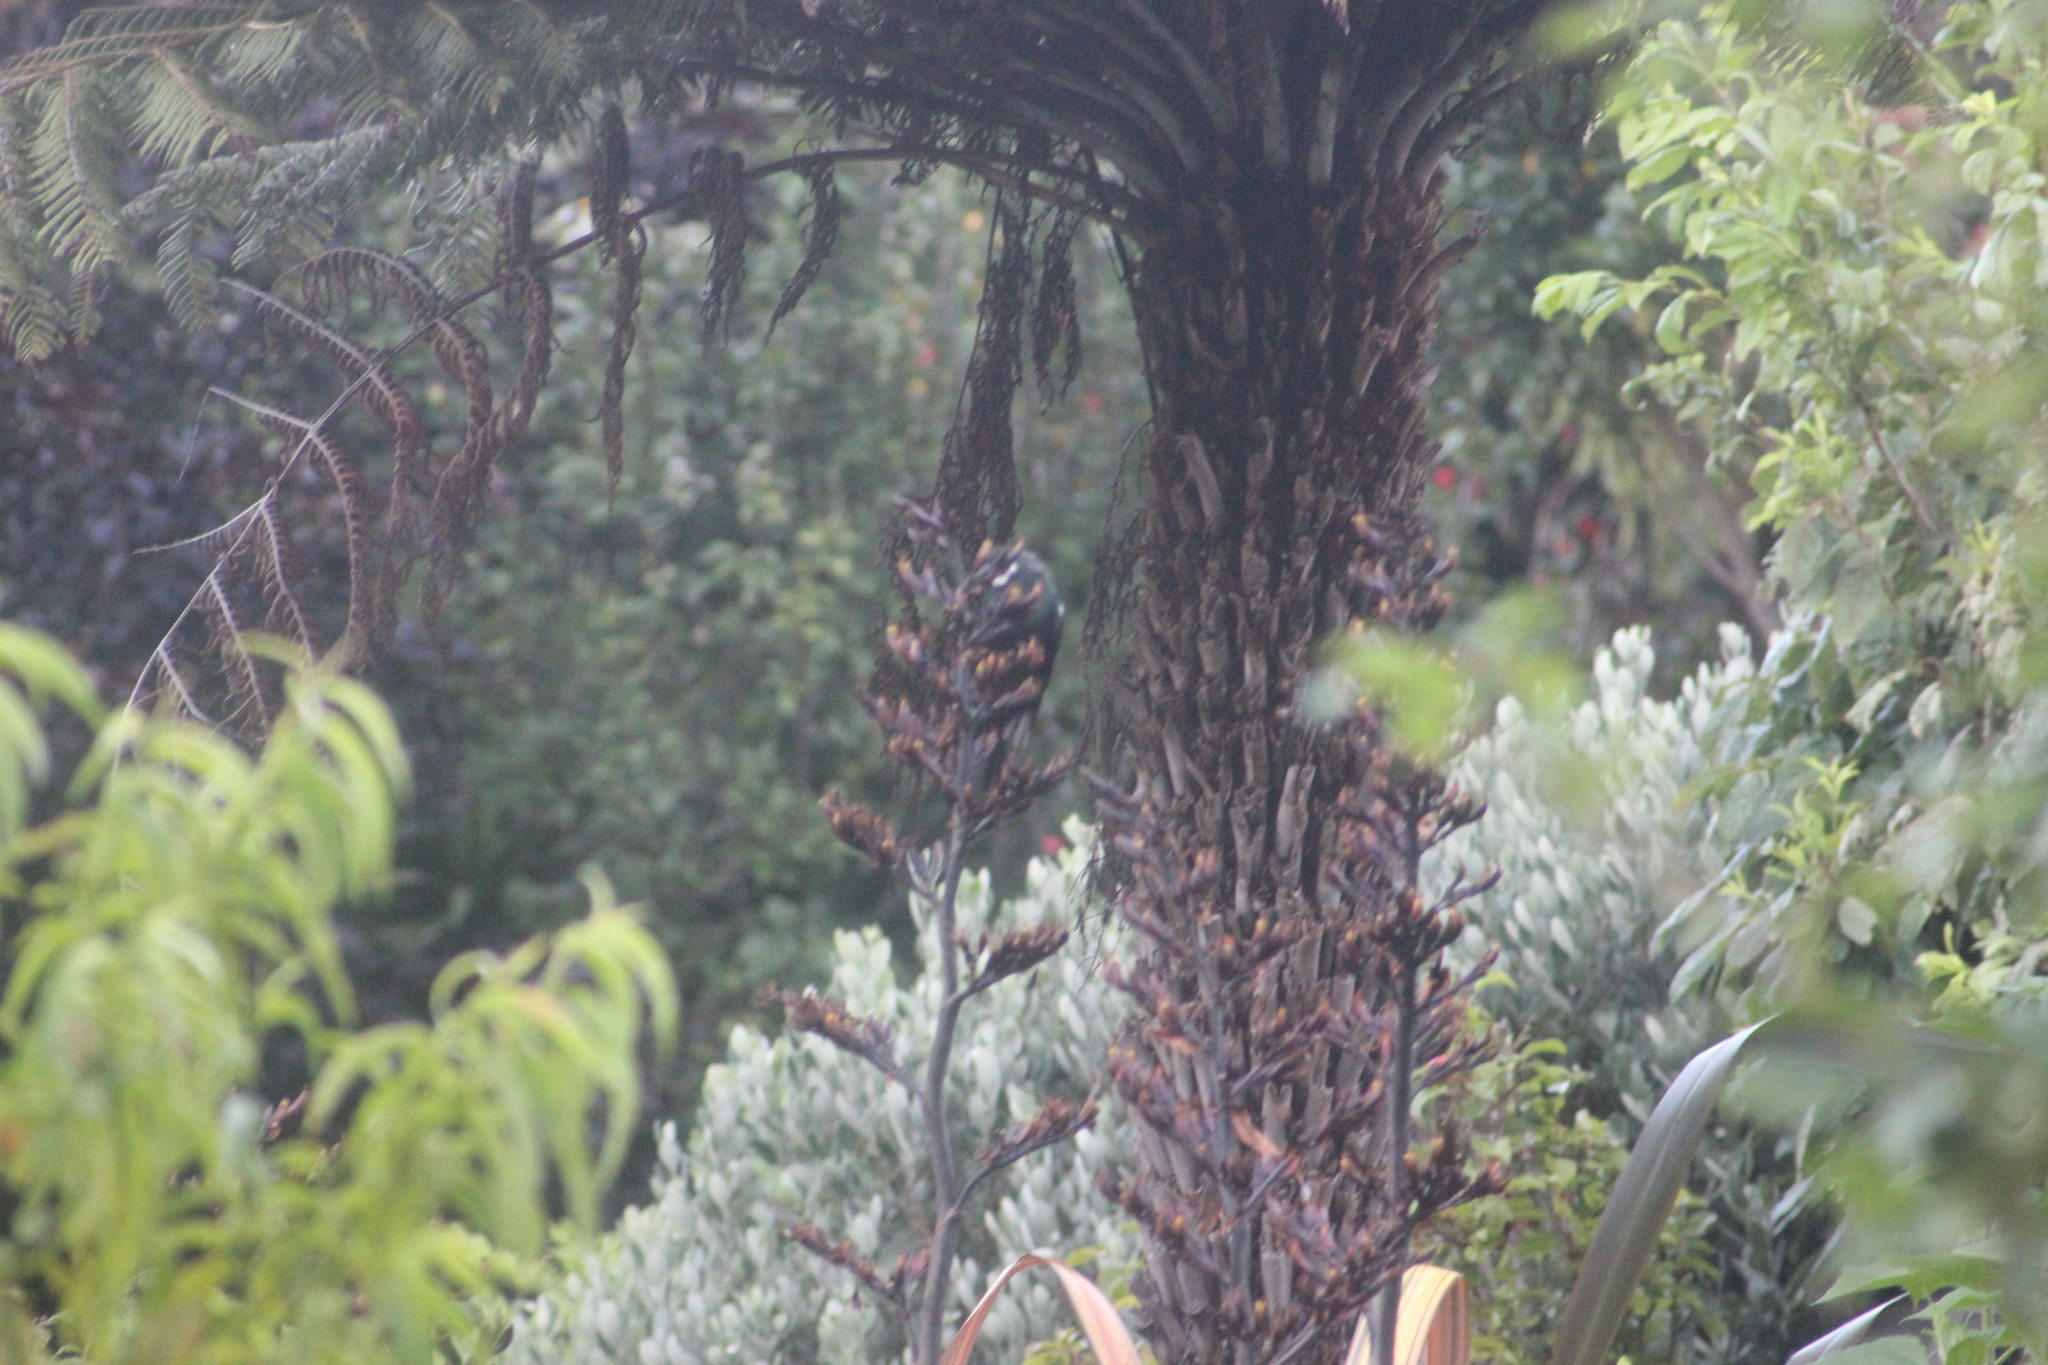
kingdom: Animalia
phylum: Chordata
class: Aves
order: Passeriformes
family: Meliphagidae
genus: Prosthemadera
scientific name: Prosthemadera novaeseelandiae
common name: Tui
